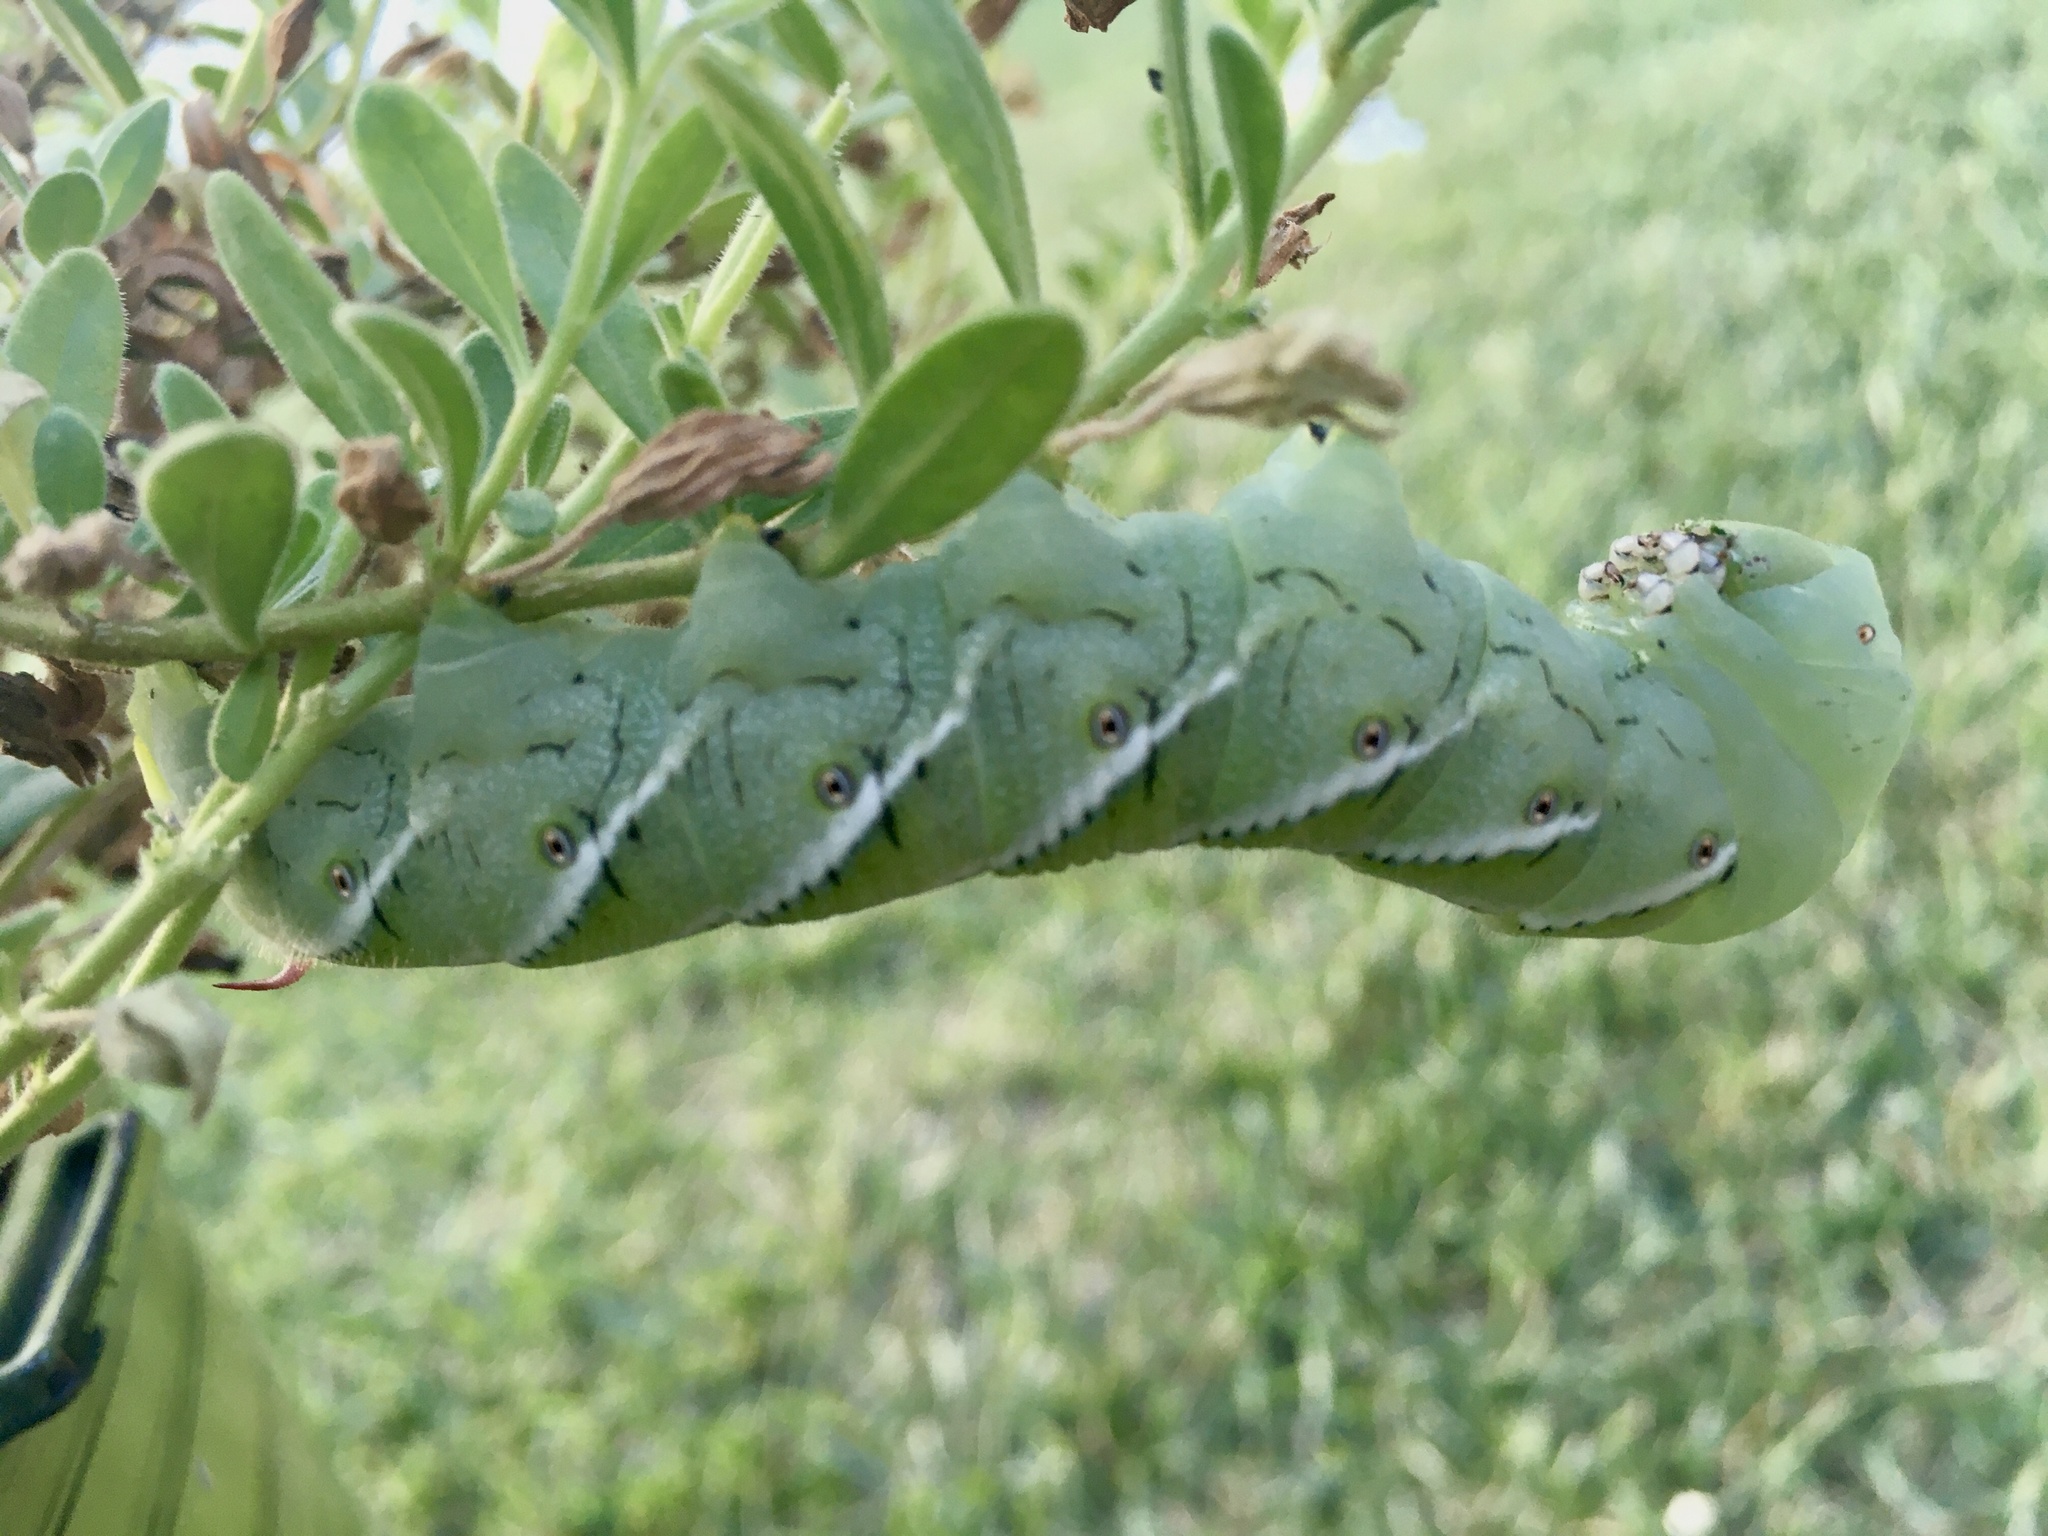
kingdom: Animalia
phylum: Arthropoda
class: Insecta
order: Lepidoptera
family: Sphingidae
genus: Manduca
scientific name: Manduca sexta
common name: Carolina sphinx
